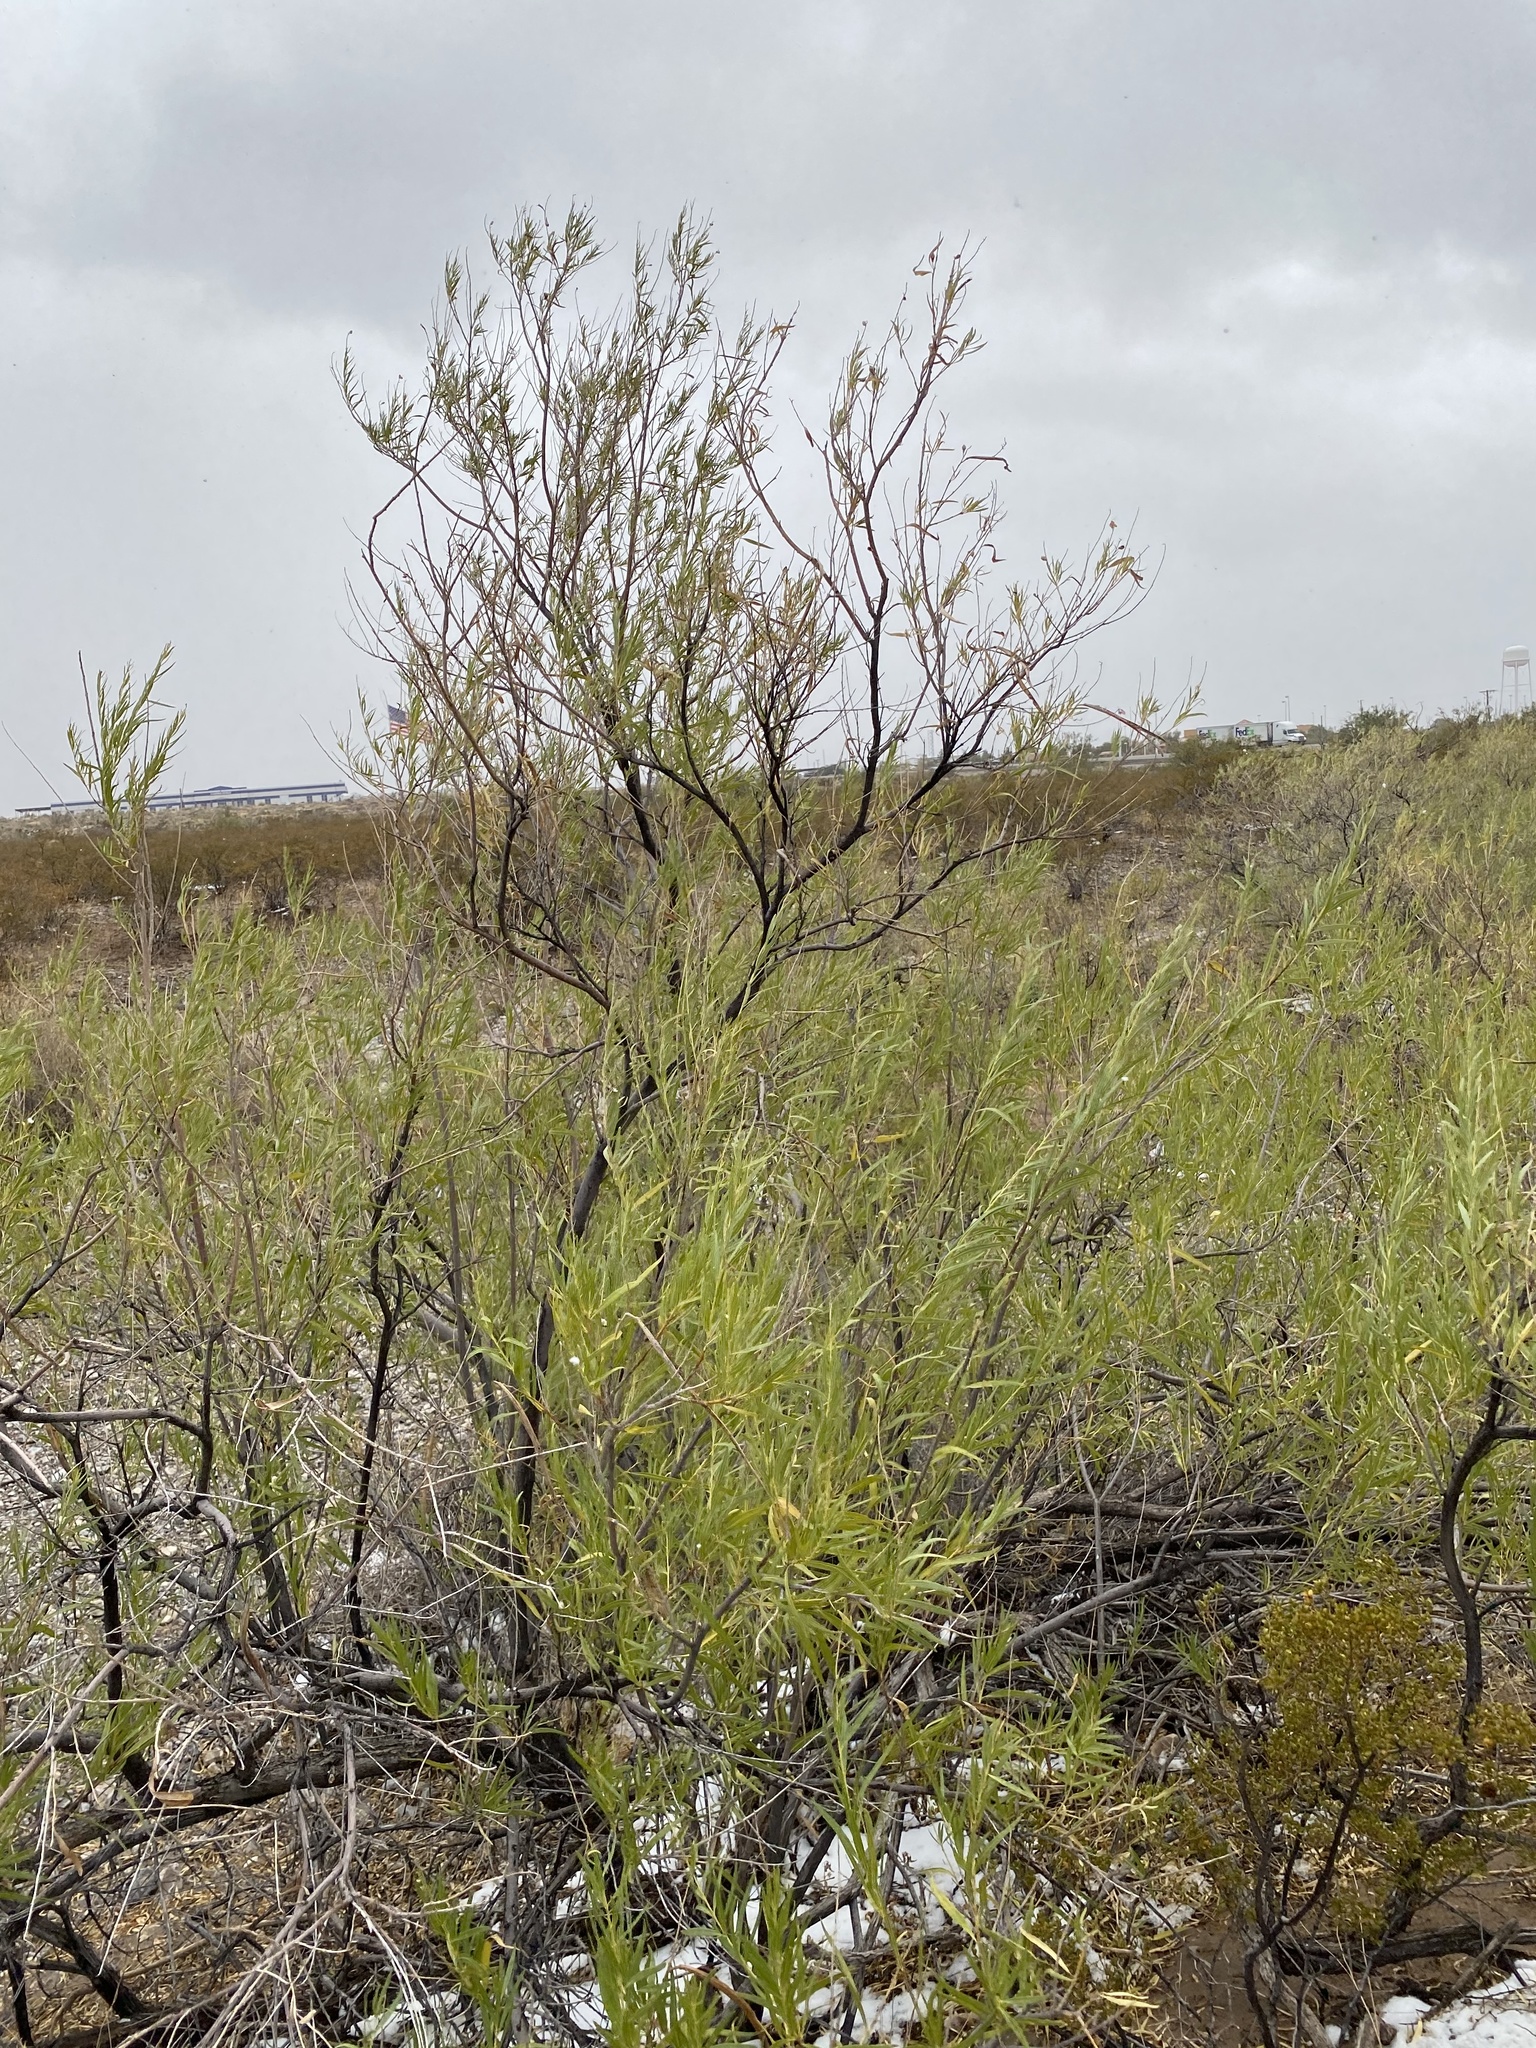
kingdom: Plantae
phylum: Tracheophyta
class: Magnoliopsida
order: Lamiales
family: Bignoniaceae
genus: Chilopsis
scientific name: Chilopsis linearis
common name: Desert-willow
